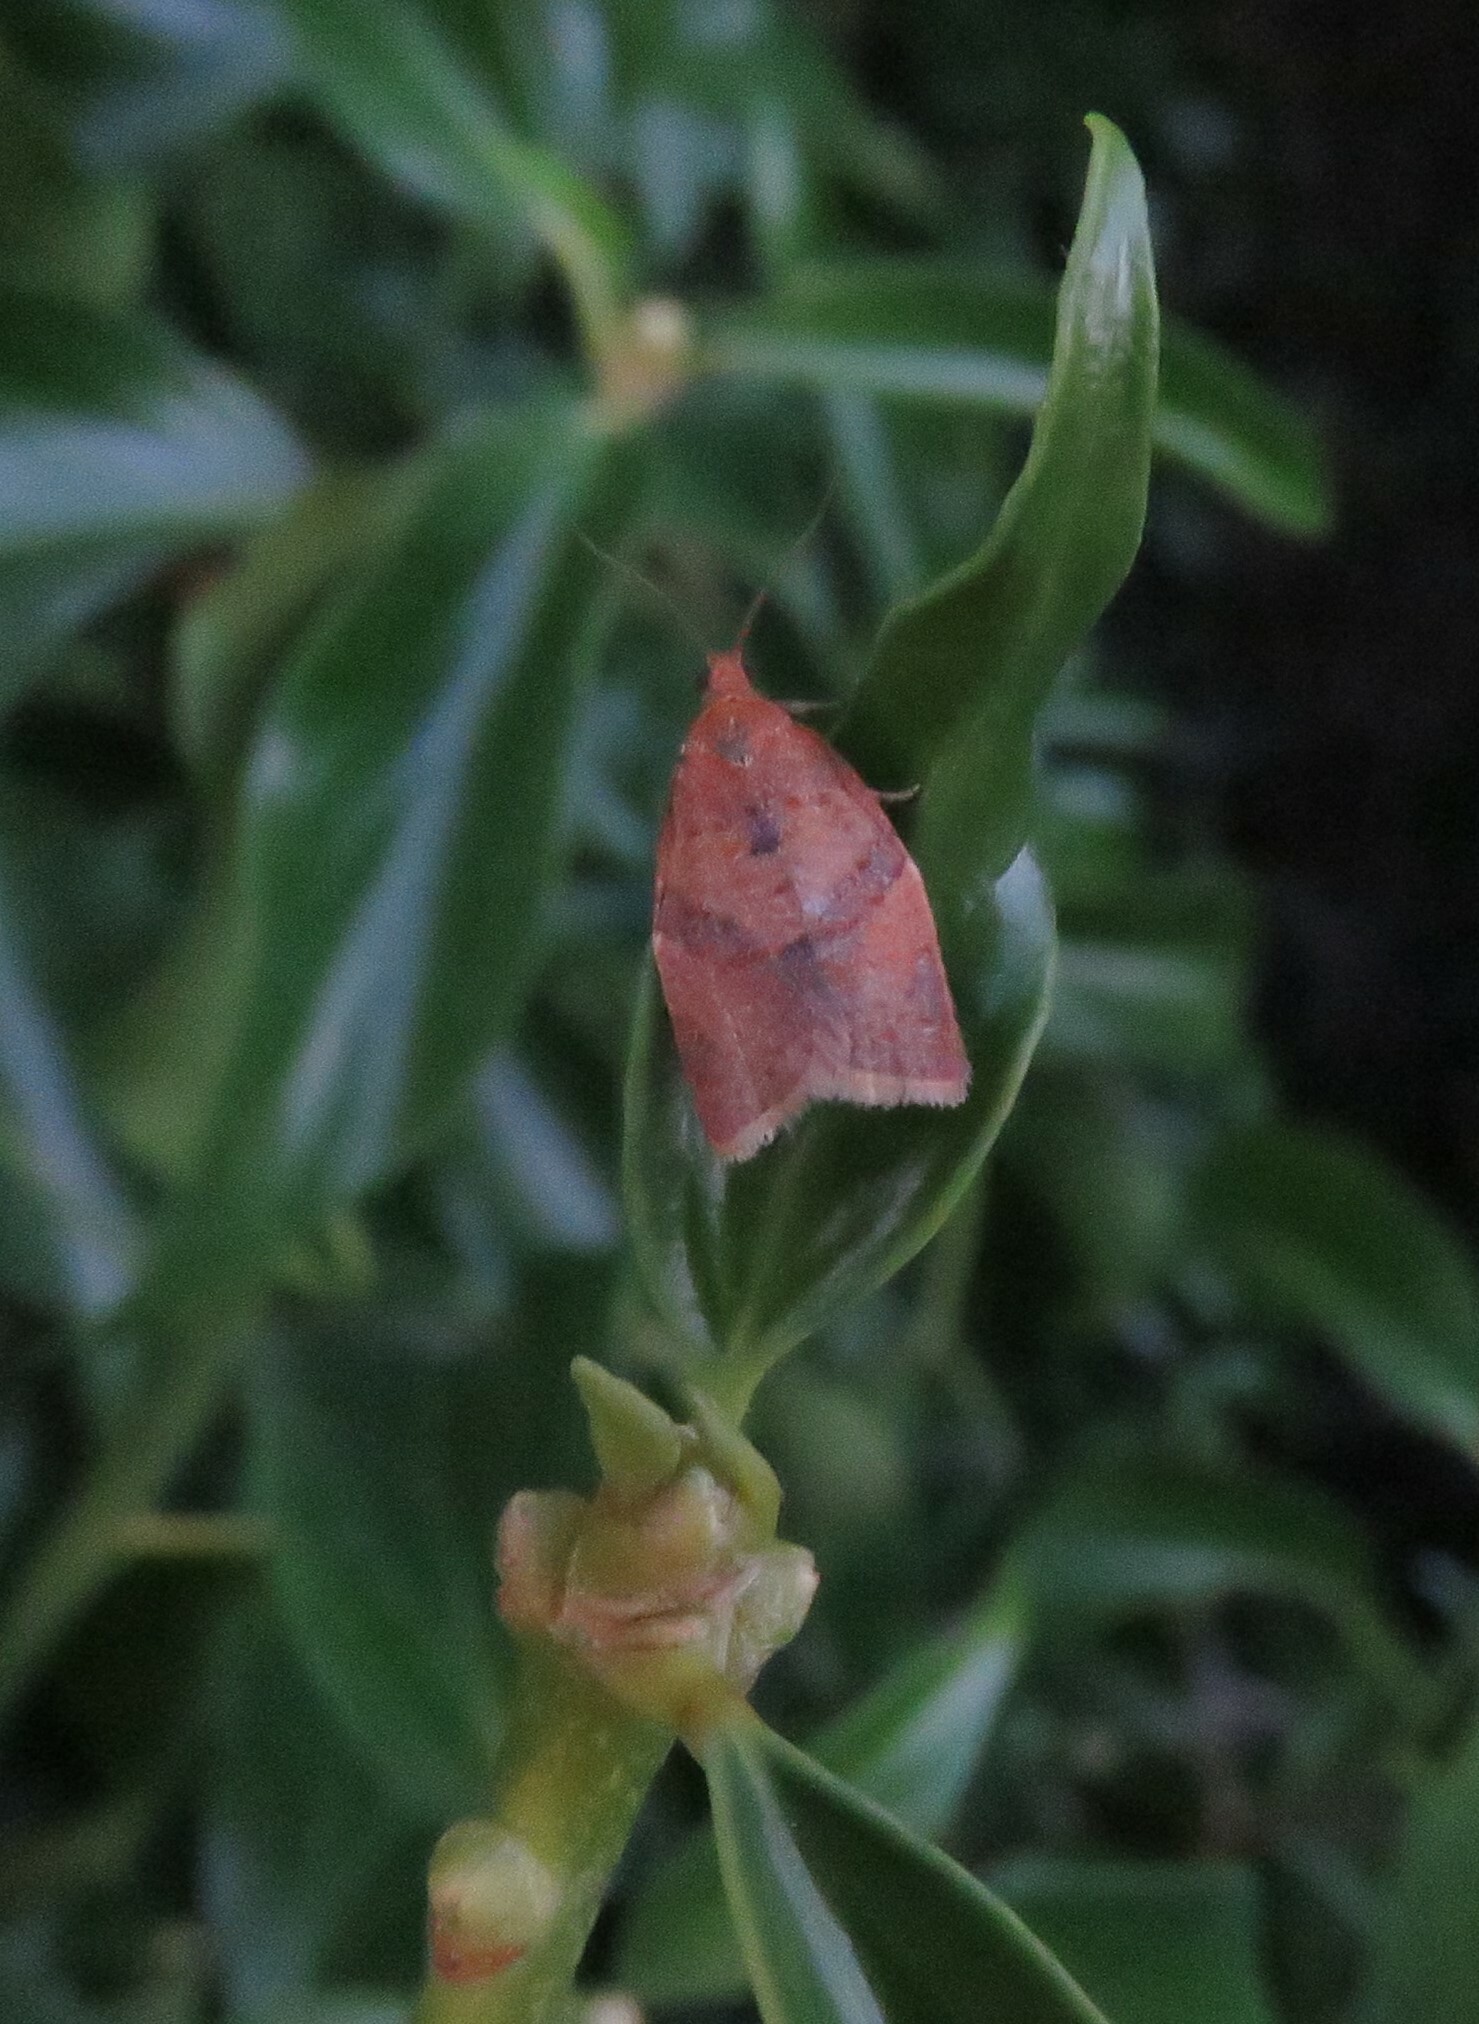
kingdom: Animalia
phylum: Arthropoda
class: Insecta
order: Lepidoptera
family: Tortricidae
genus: Clepsis
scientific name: Clepsis consimilana
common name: Privet tortrix
